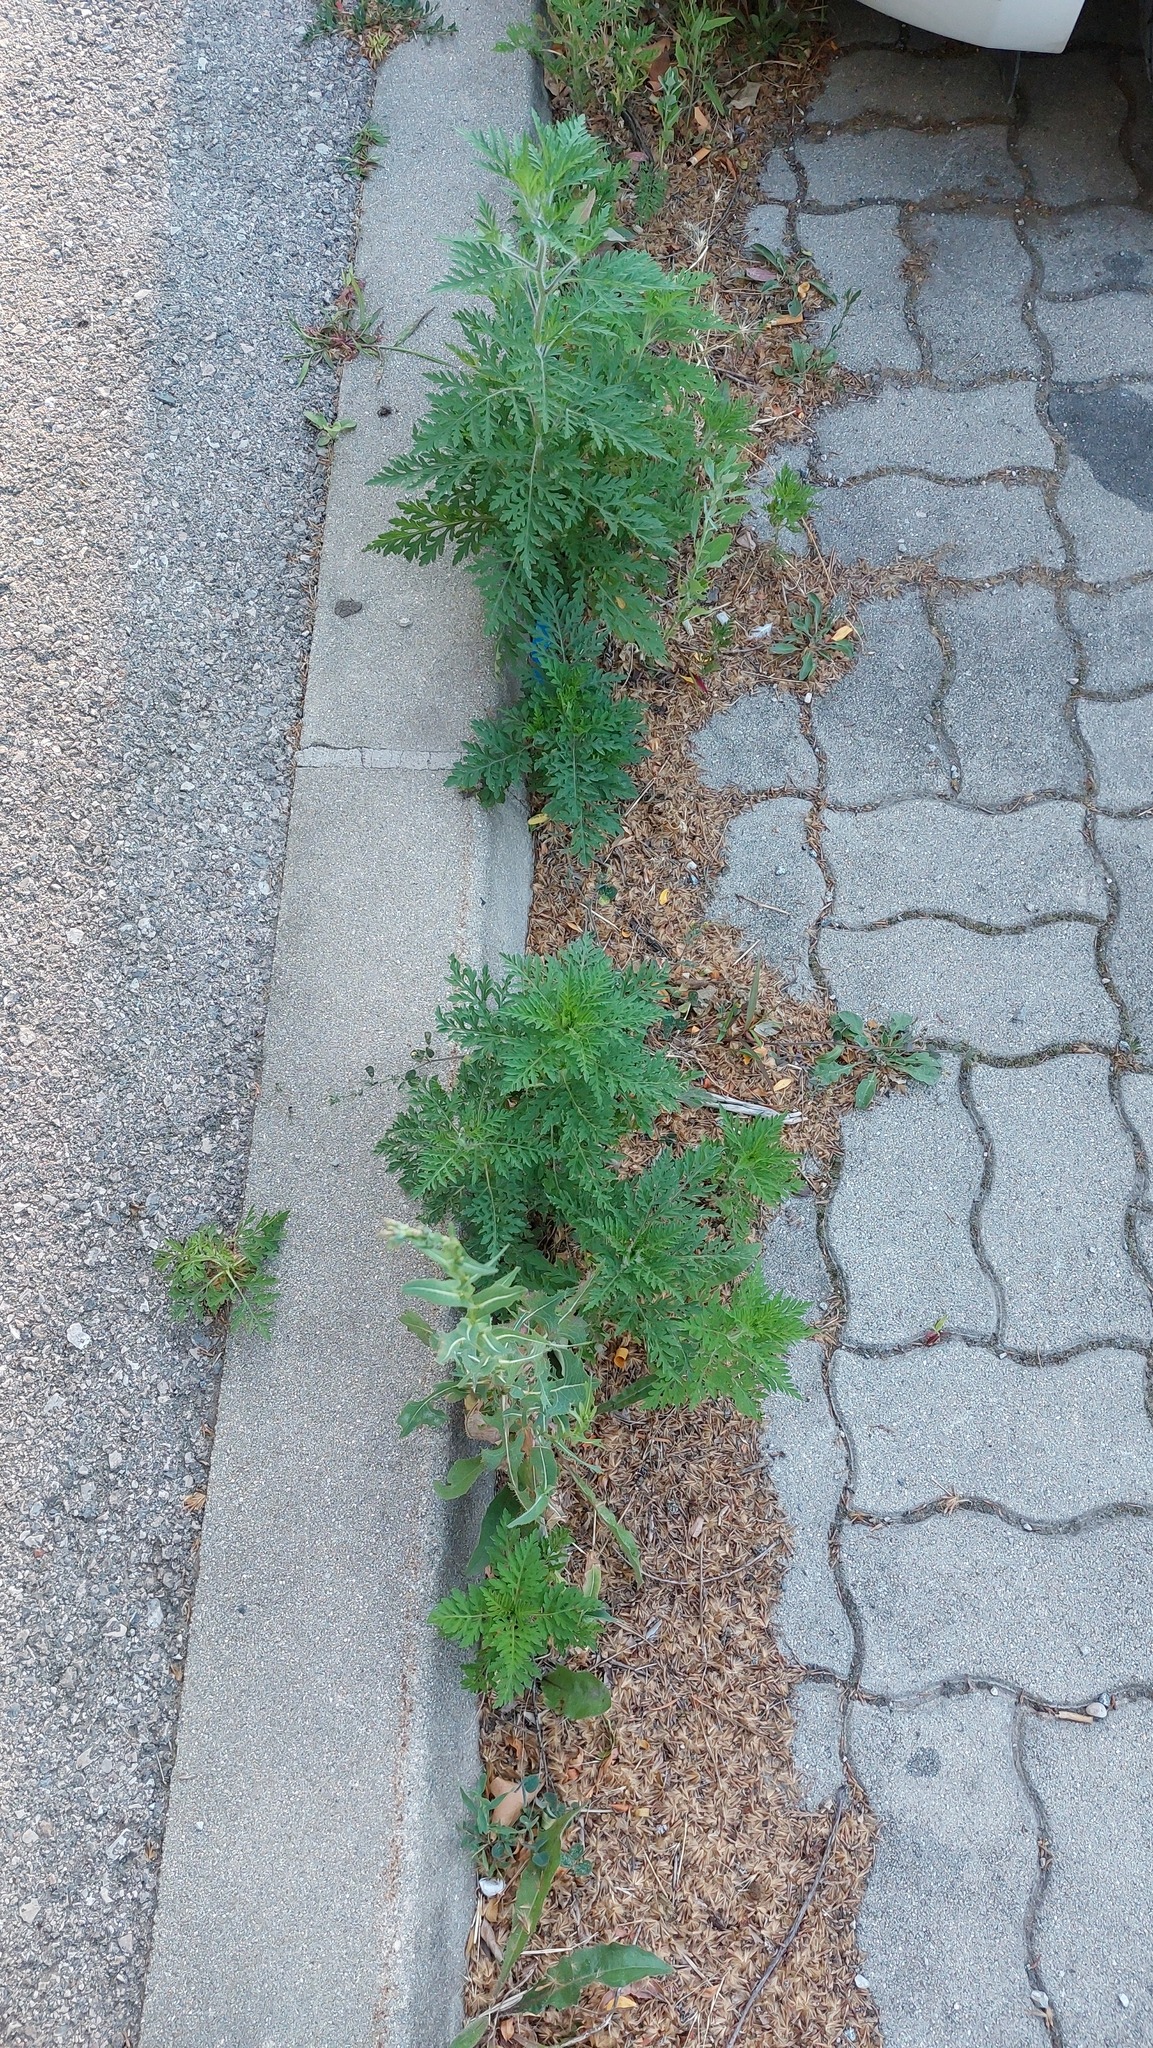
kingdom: Plantae
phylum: Tracheophyta
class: Magnoliopsida
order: Asterales
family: Asteraceae
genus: Ambrosia
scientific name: Ambrosia artemisiifolia
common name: Annual ragweed
